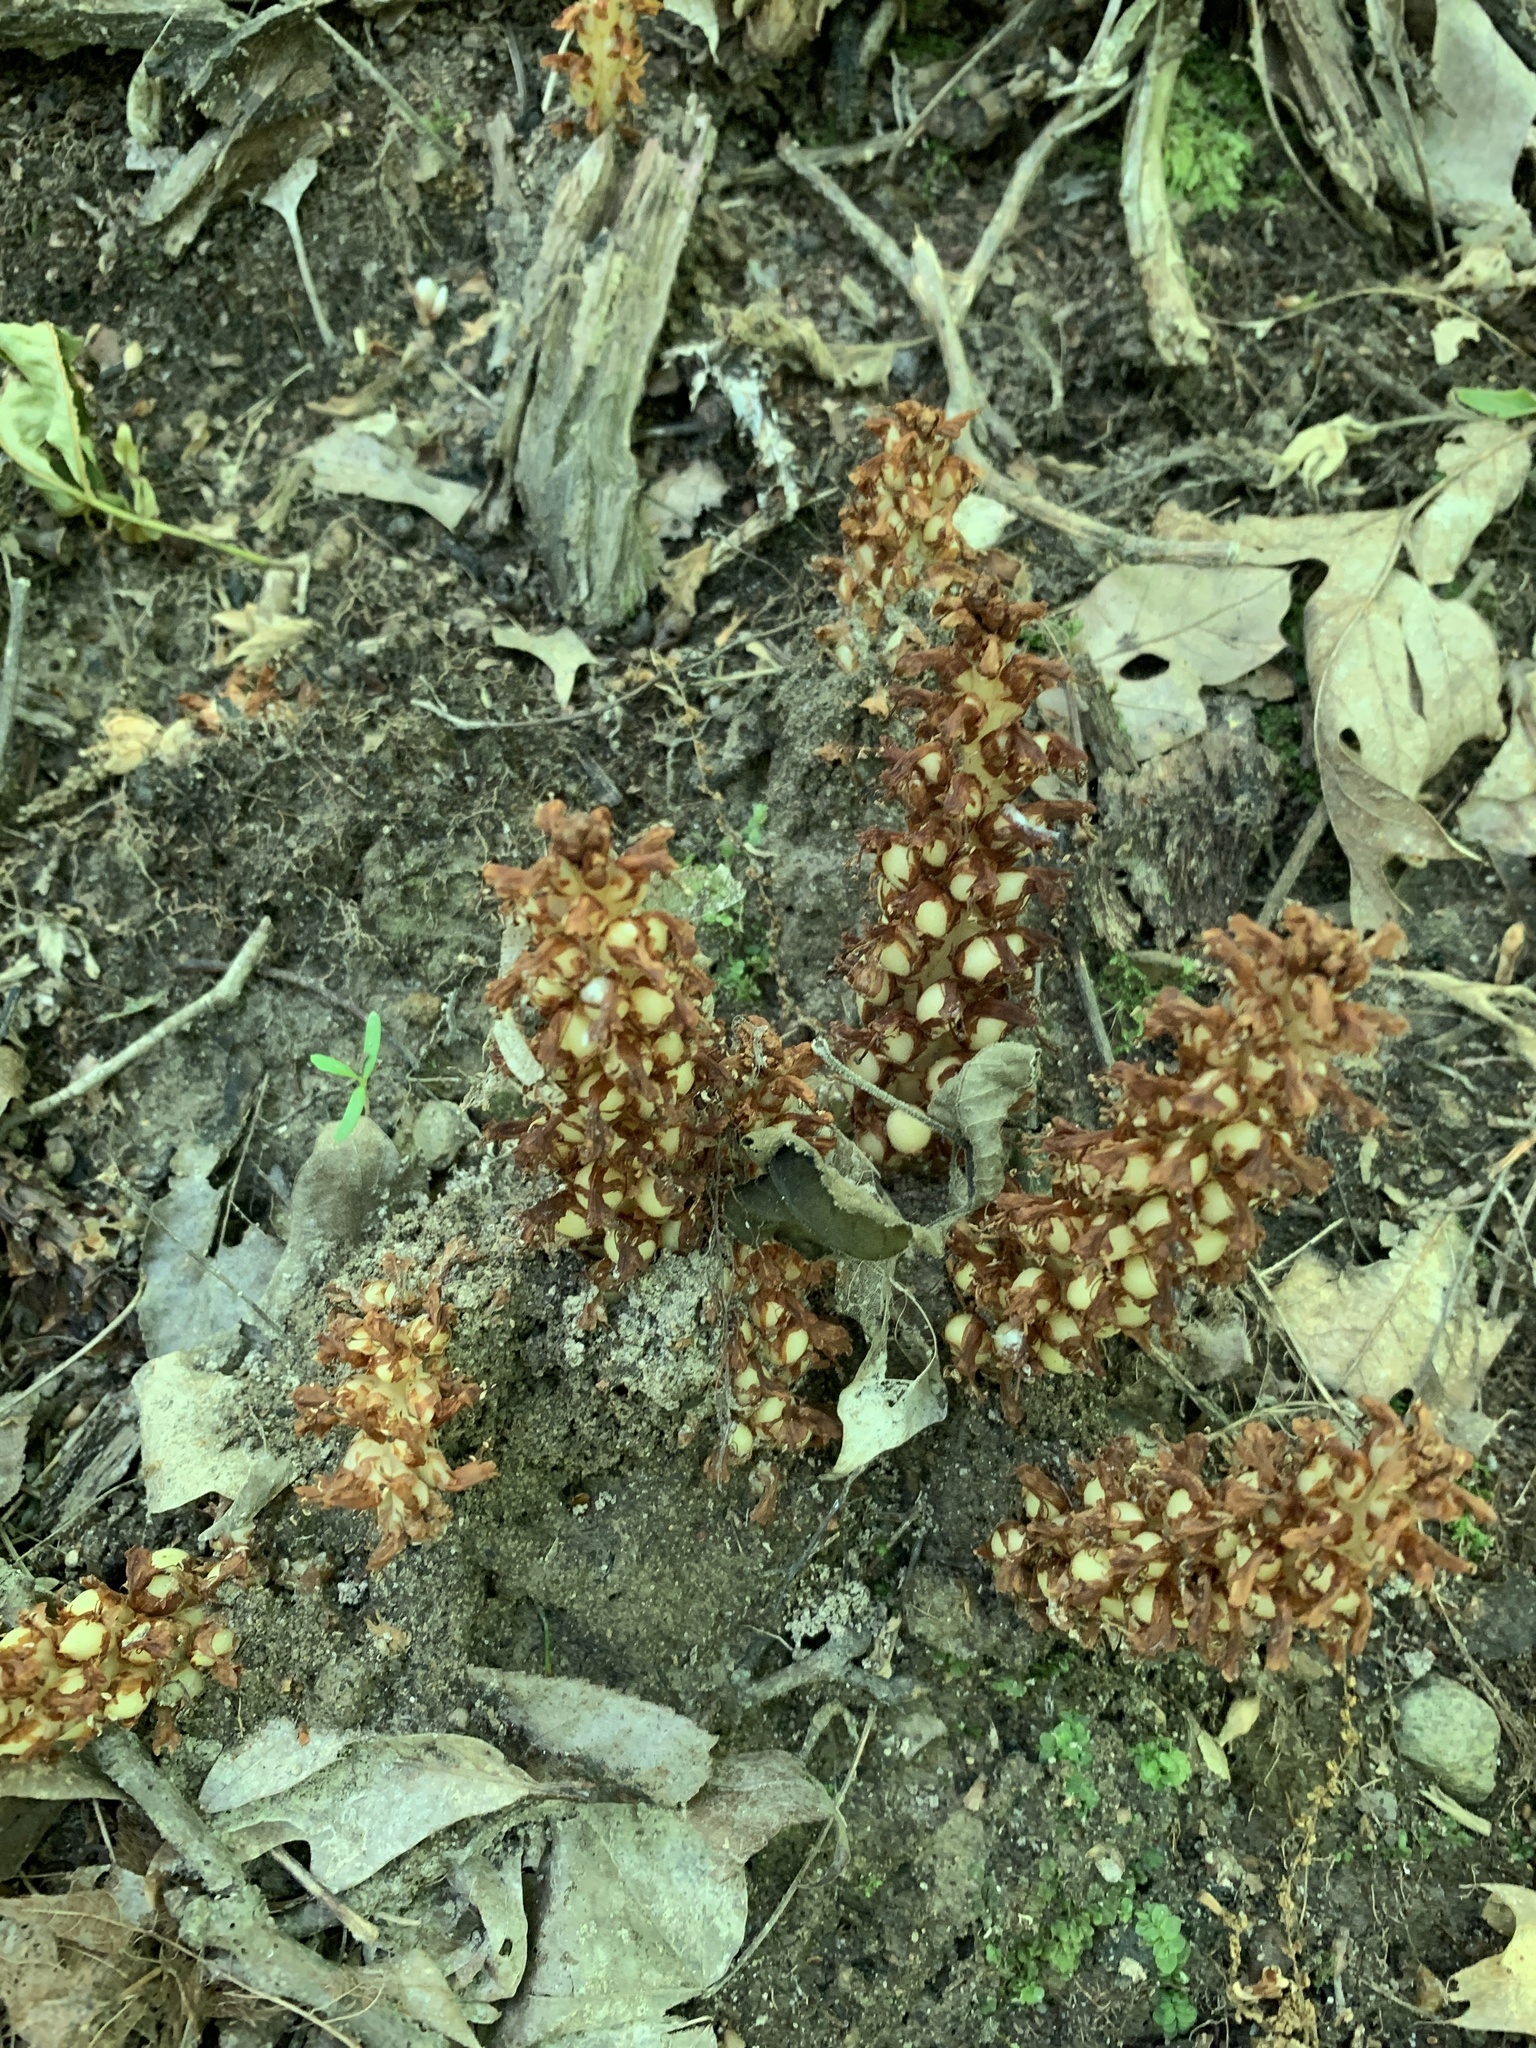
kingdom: Plantae
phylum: Tracheophyta
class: Magnoliopsida
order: Lamiales
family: Orobanchaceae
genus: Conopholis
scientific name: Conopholis americana
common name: American cancer-root
